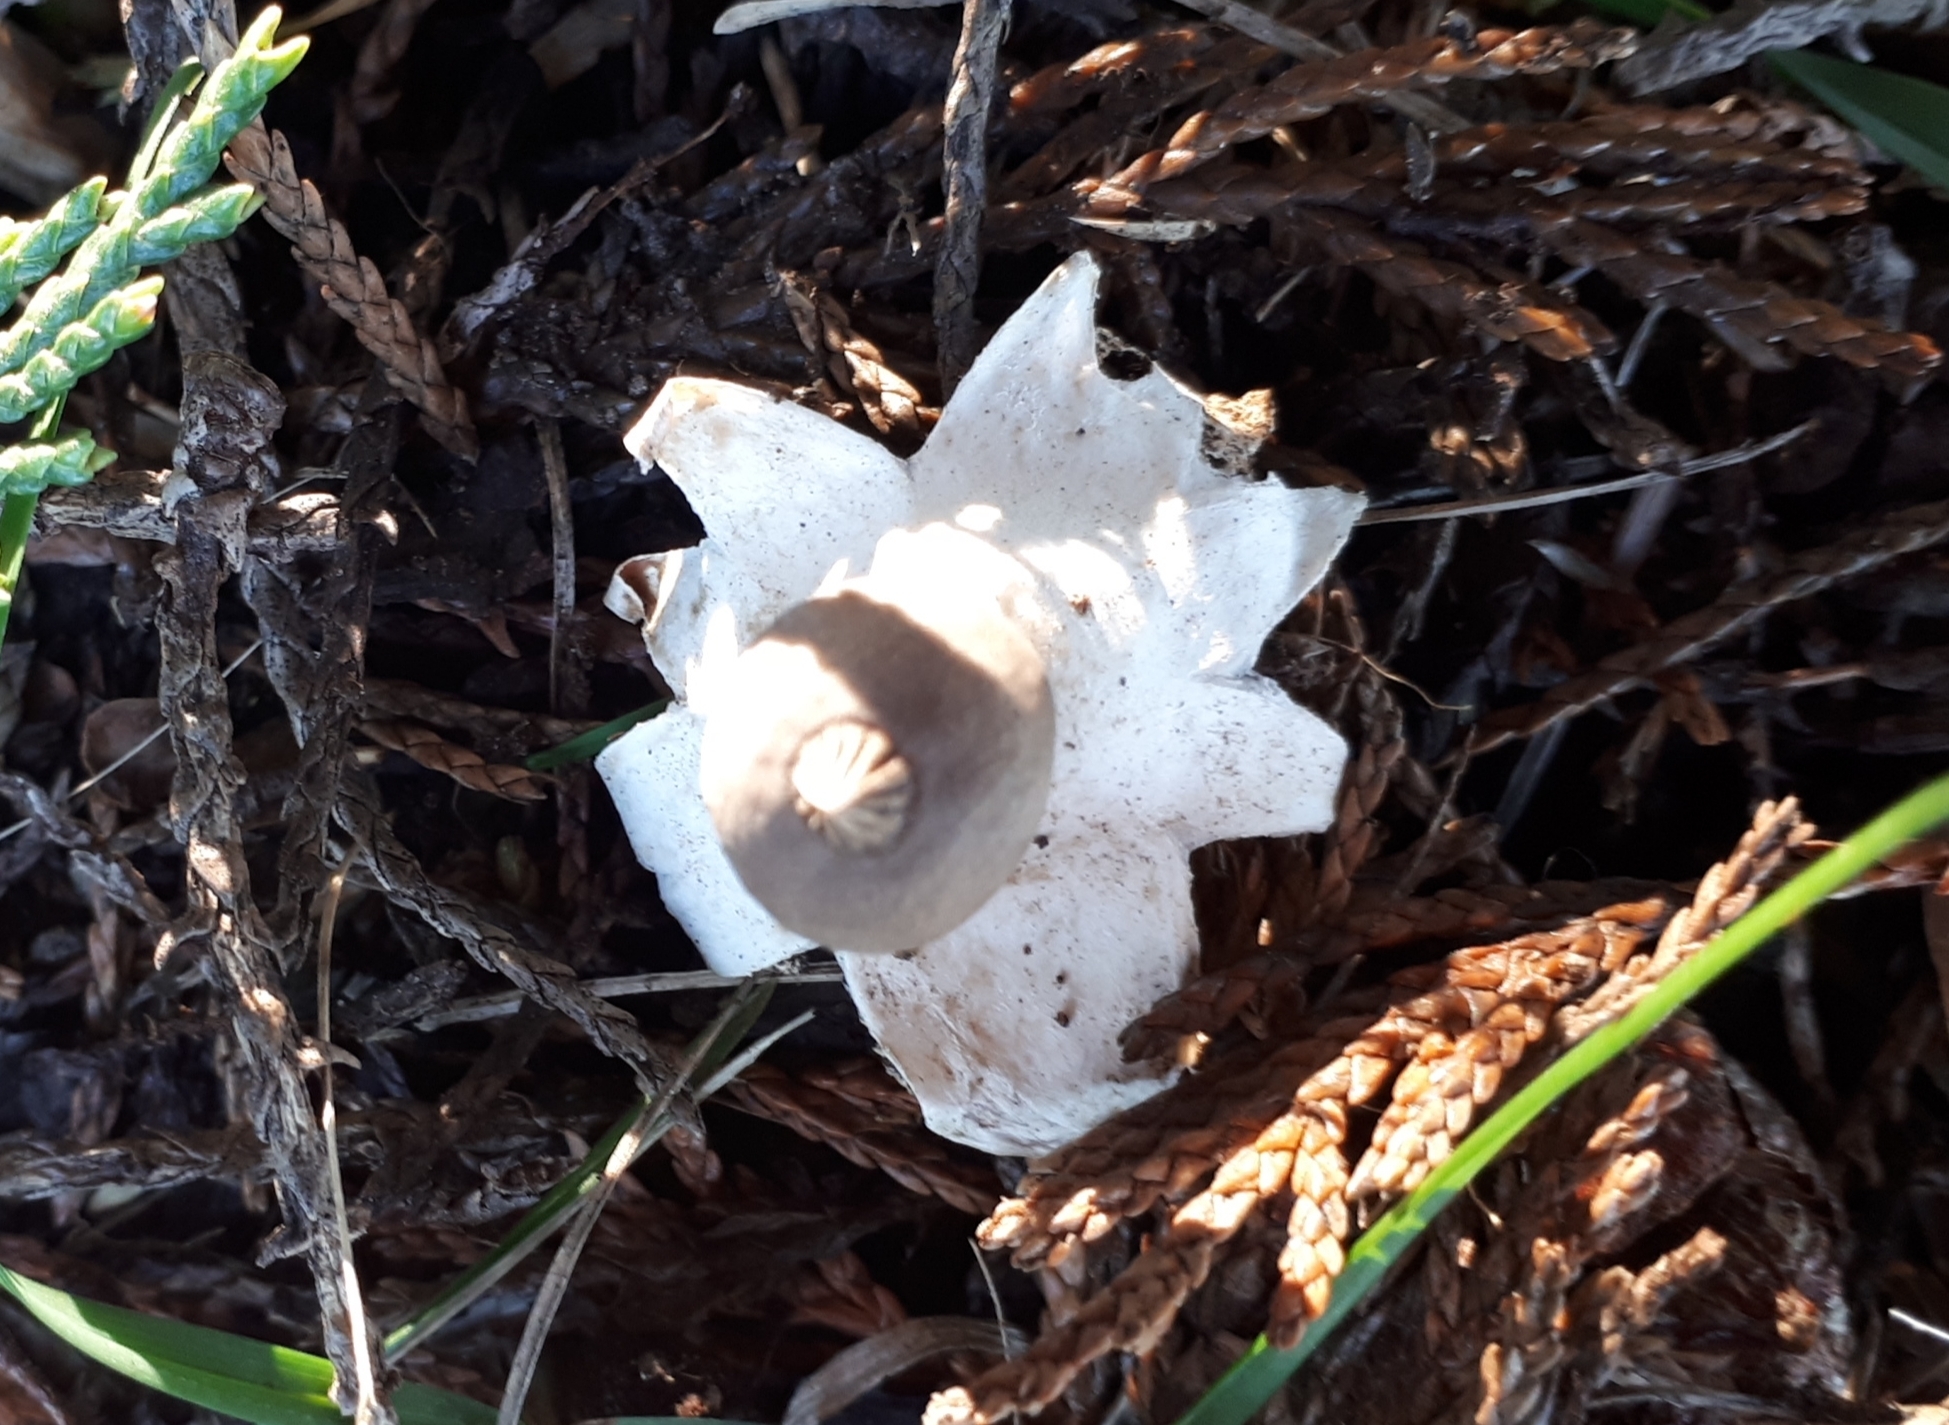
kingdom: Fungi
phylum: Basidiomycota
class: Agaricomycetes
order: Geastrales
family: Geastraceae
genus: Geastrum
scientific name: Geastrum pectinatum
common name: Beaked earthstar
